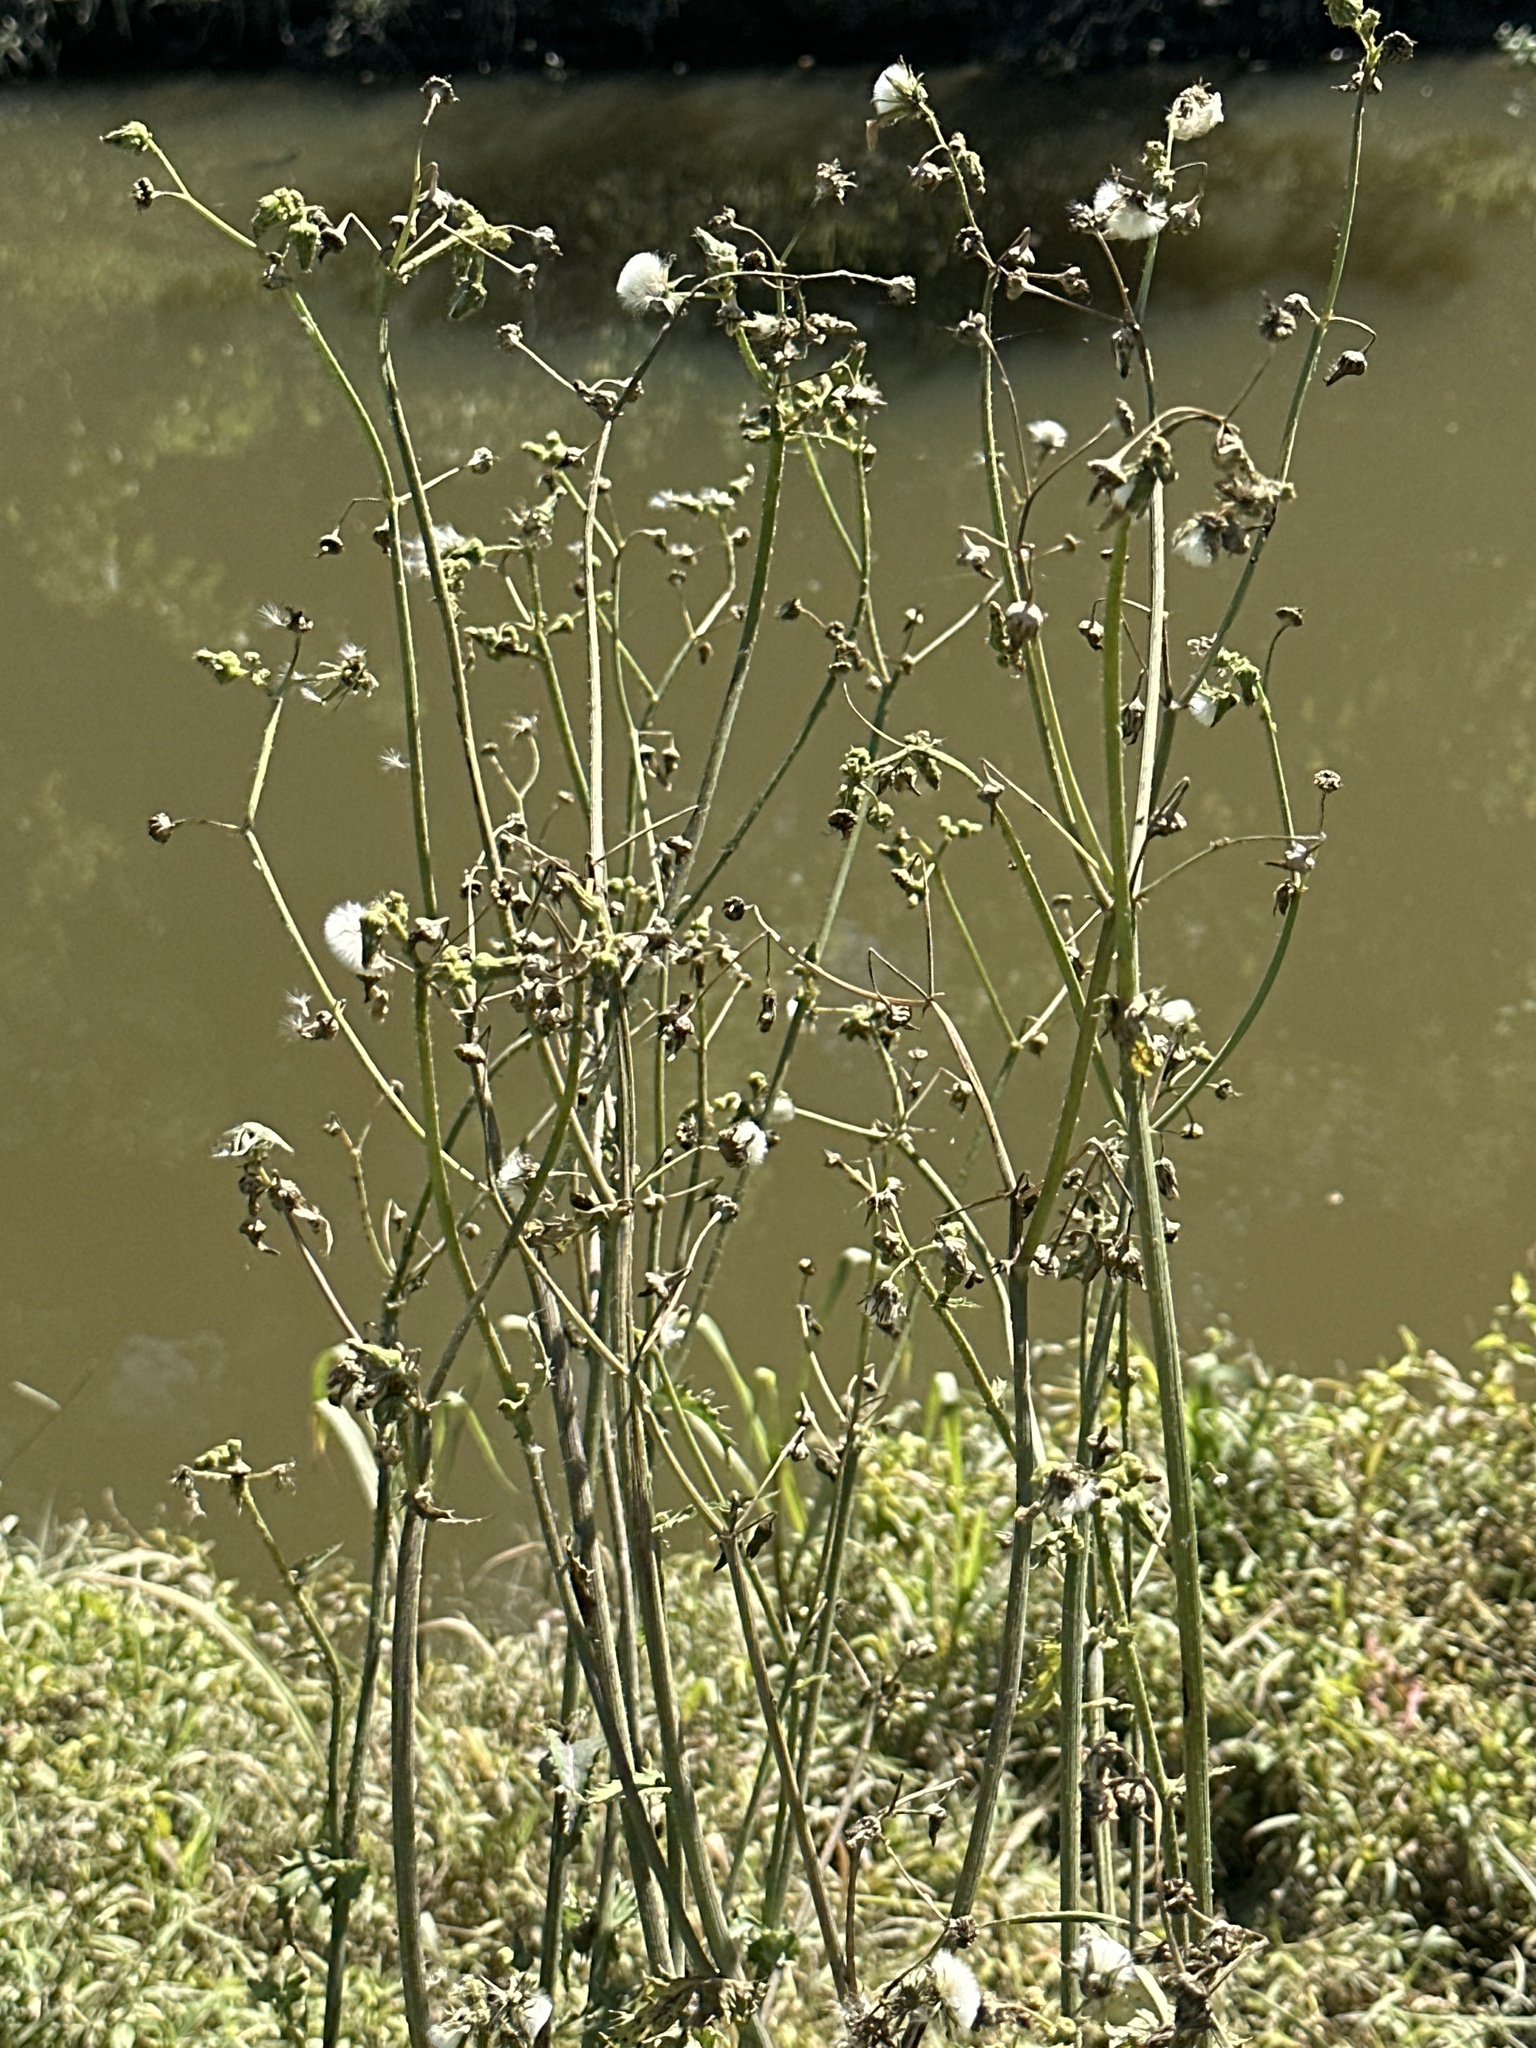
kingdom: Plantae
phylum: Tracheophyta
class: Magnoliopsida
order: Asterales
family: Asteraceae
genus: Sonchus
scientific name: Sonchus asper
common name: Prickly sow-thistle
